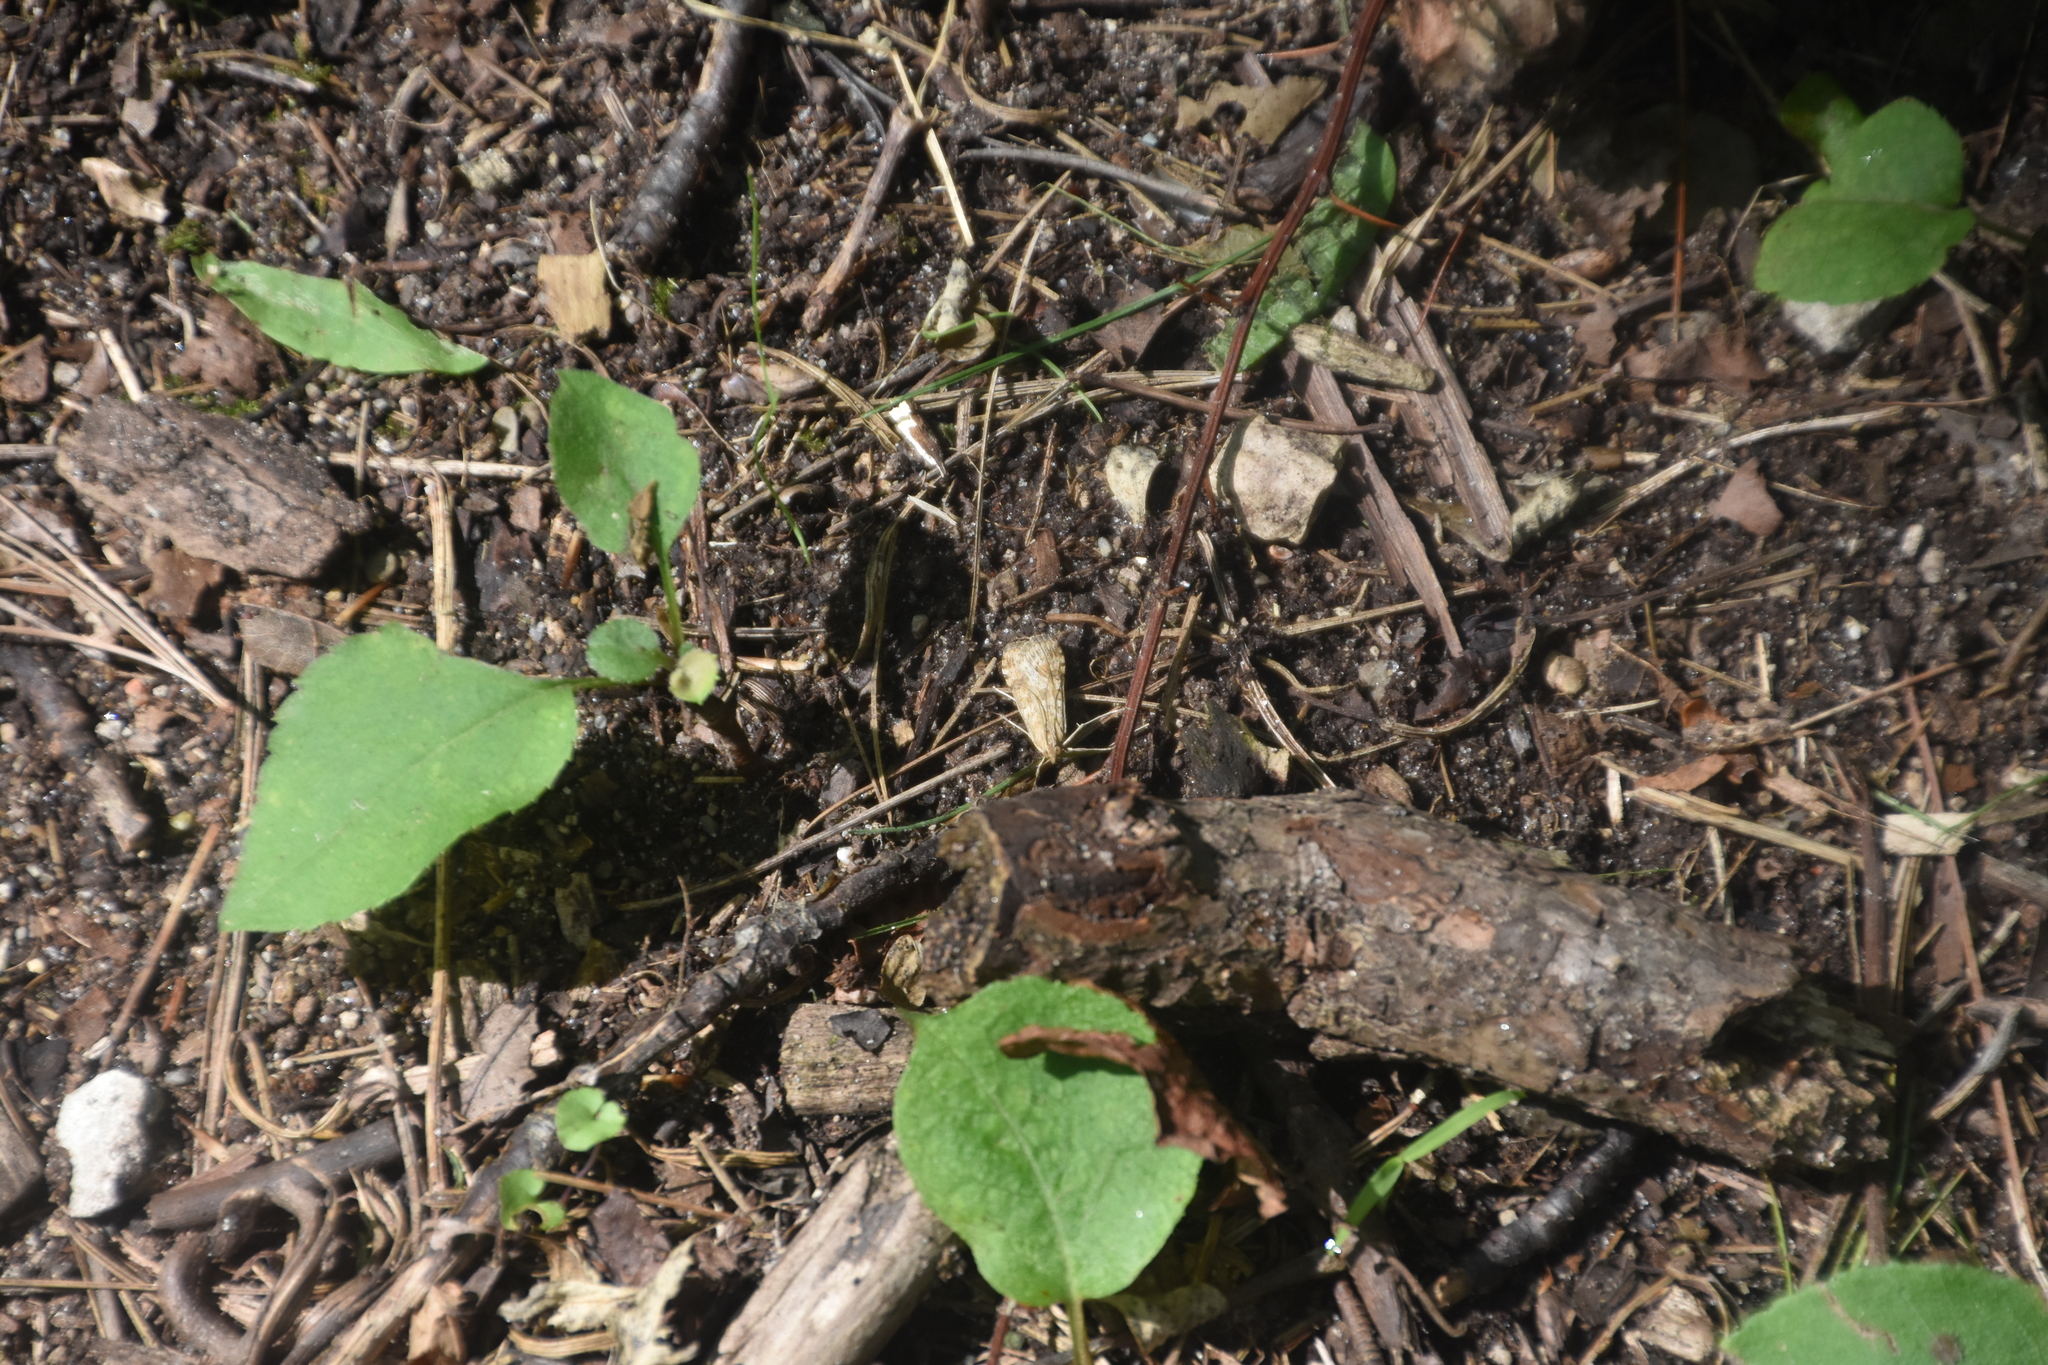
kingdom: Animalia
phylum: Arthropoda
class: Insecta
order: Lepidoptera
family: Crambidae
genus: Nomophila
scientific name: Nomophila nearctica
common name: American rush veneer
